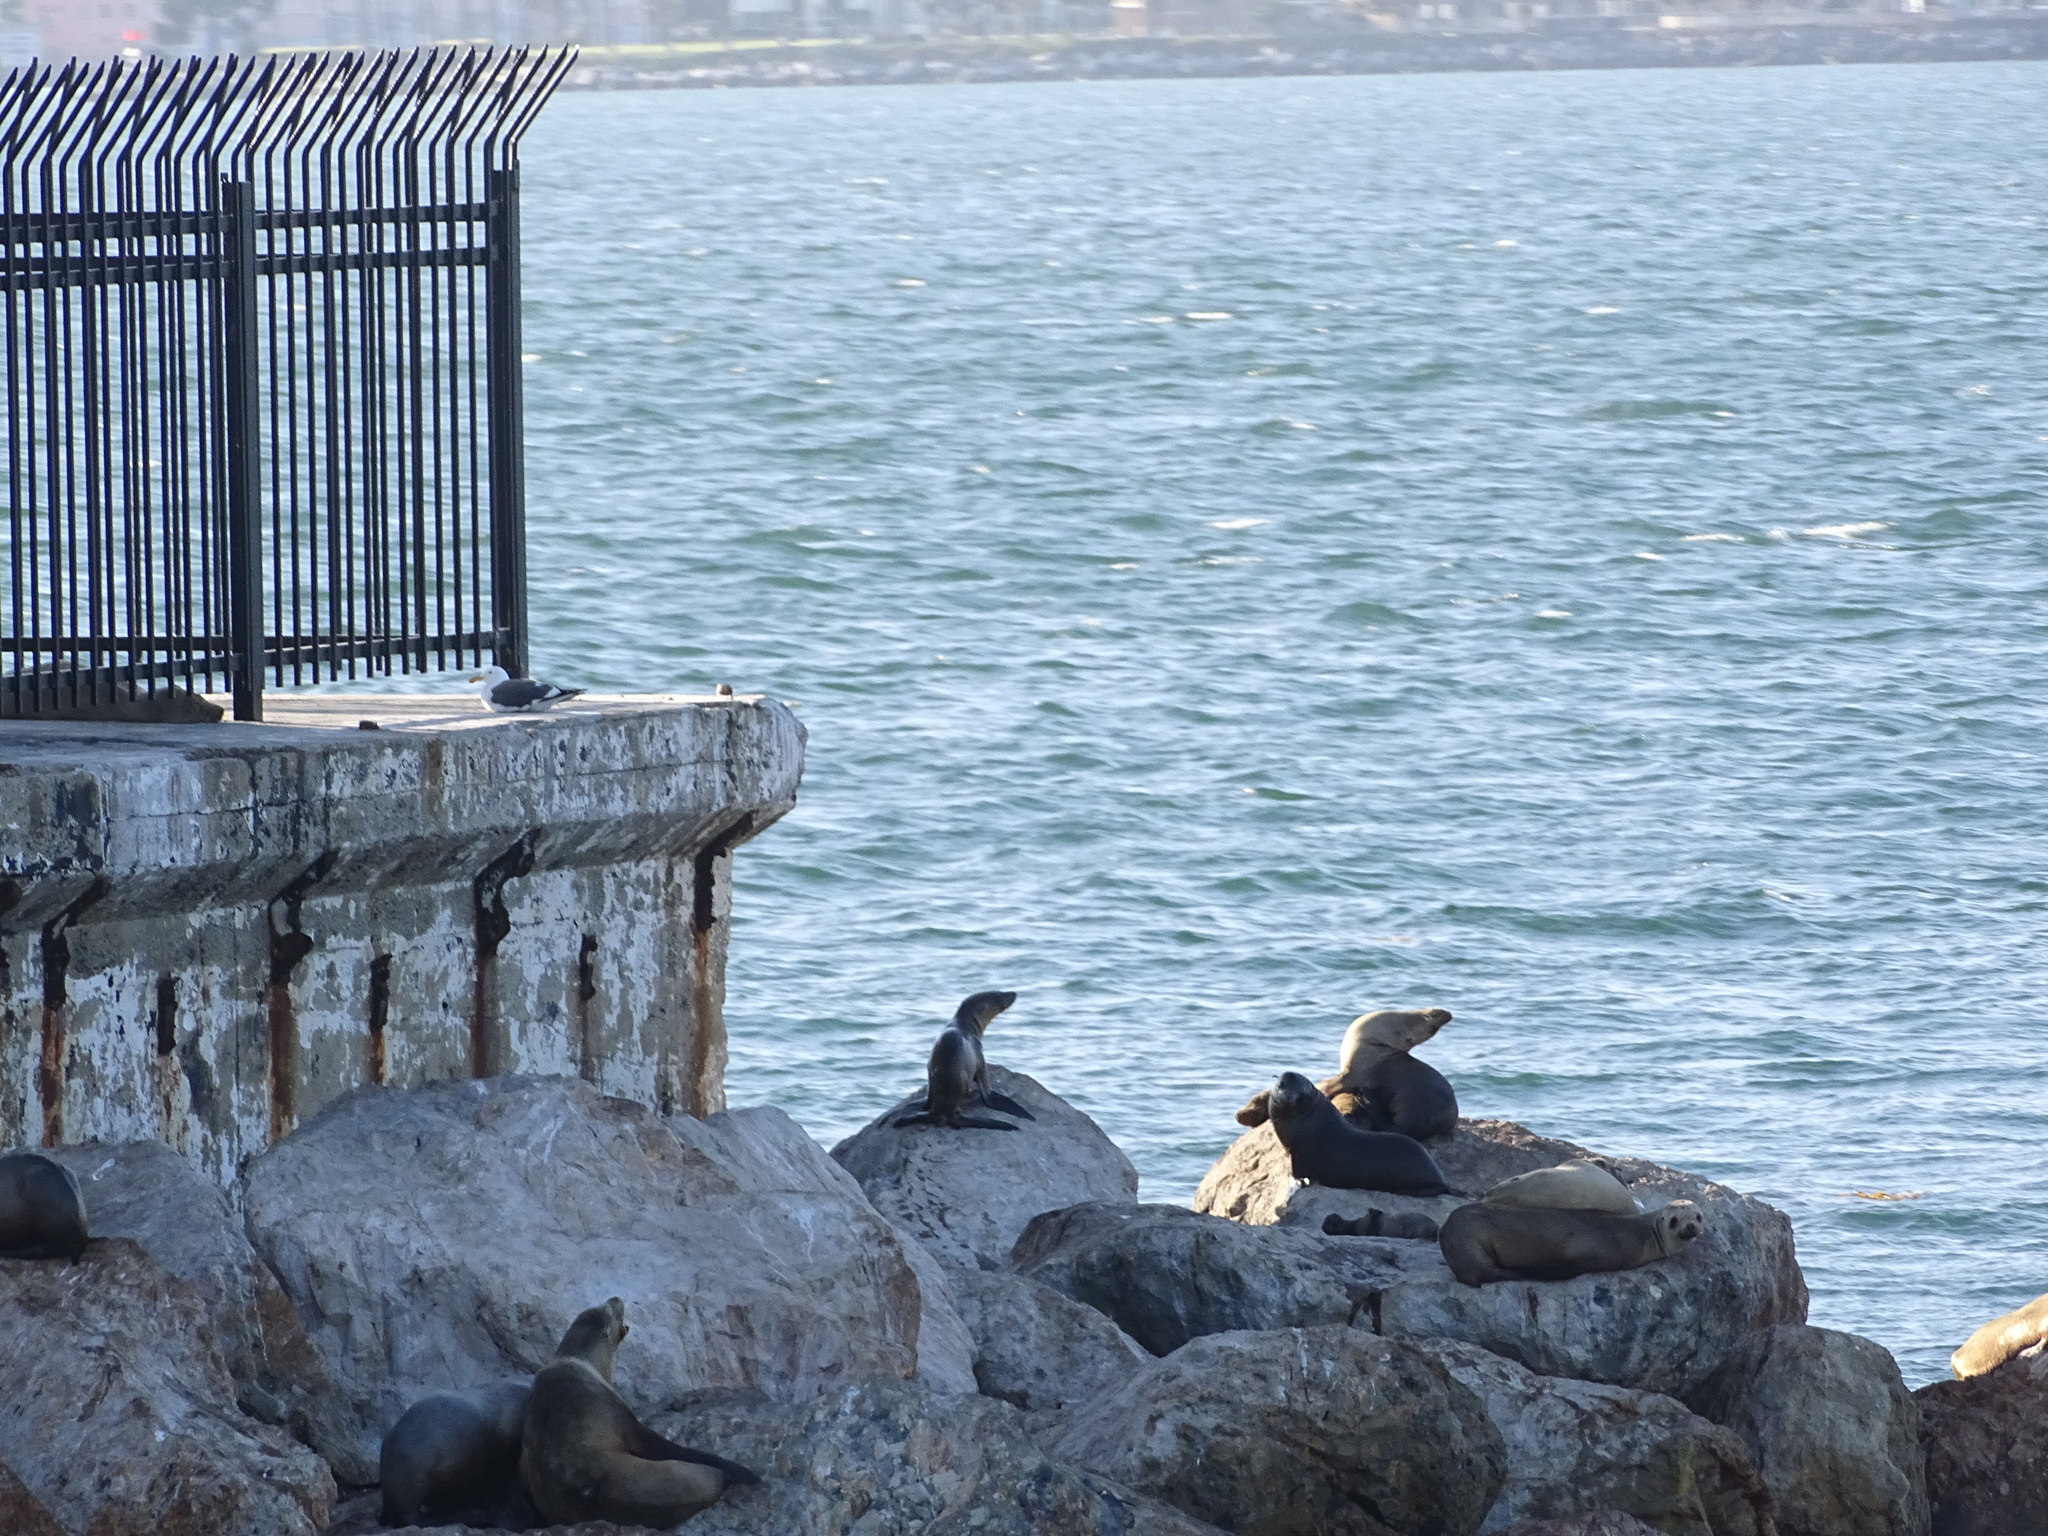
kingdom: Animalia
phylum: Chordata
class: Mammalia
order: Carnivora
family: Otariidae
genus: Zalophus
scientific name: Zalophus californianus
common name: California sea lion
